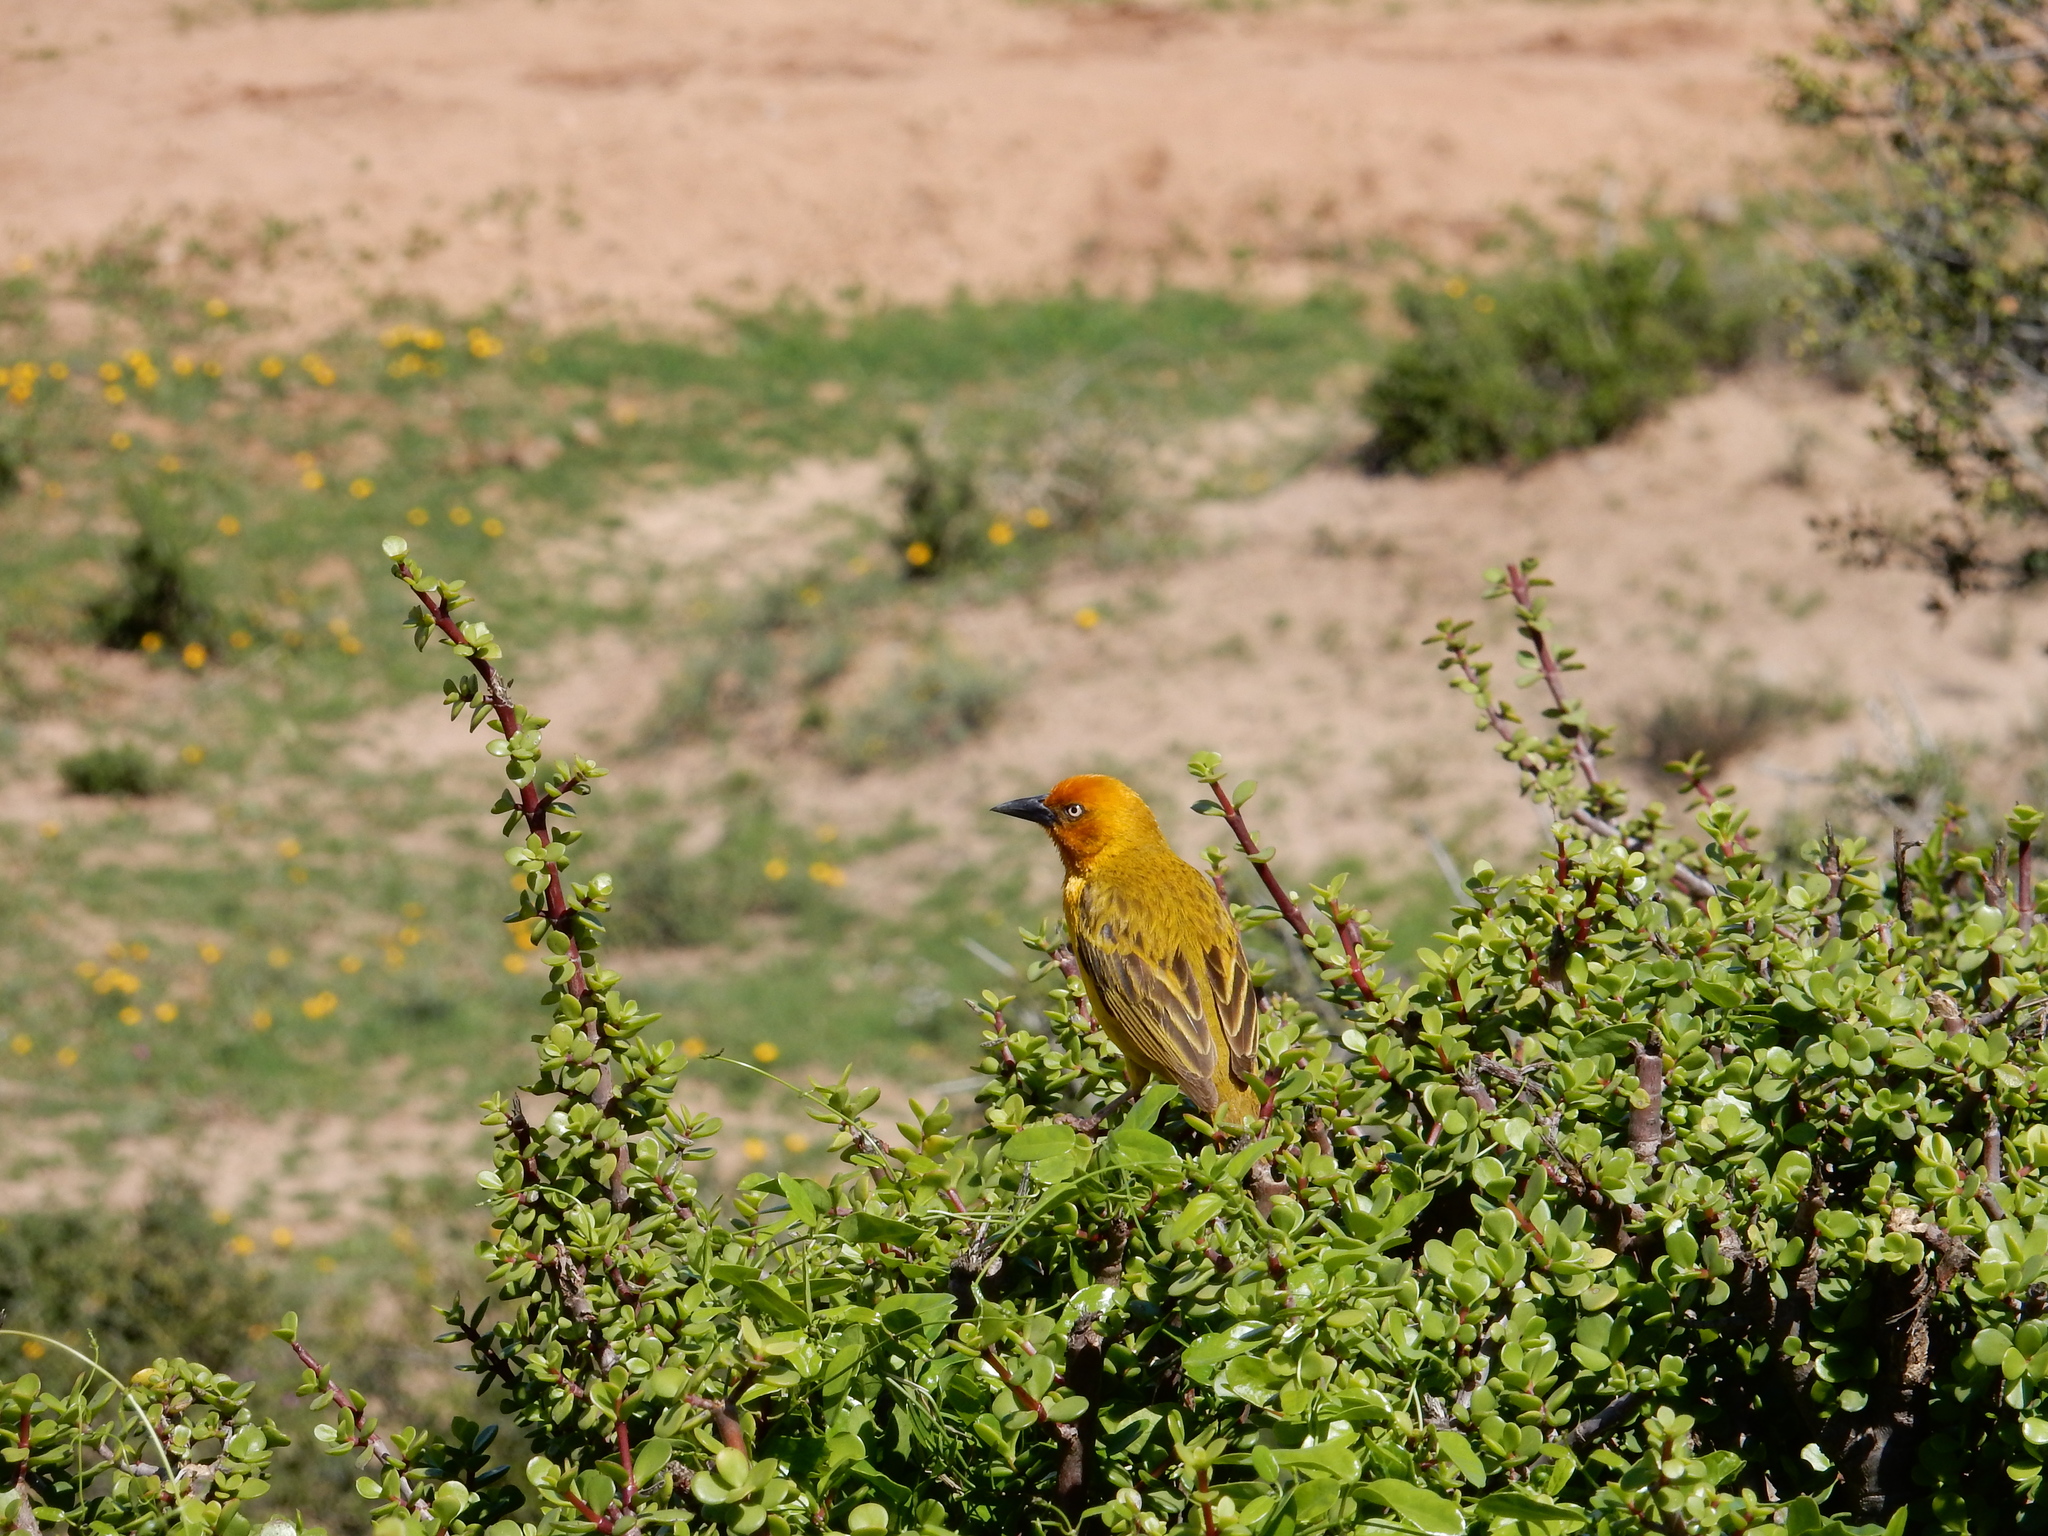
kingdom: Animalia
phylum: Chordata
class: Aves
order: Passeriformes
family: Ploceidae
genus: Ploceus
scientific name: Ploceus capensis
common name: Cape weaver
